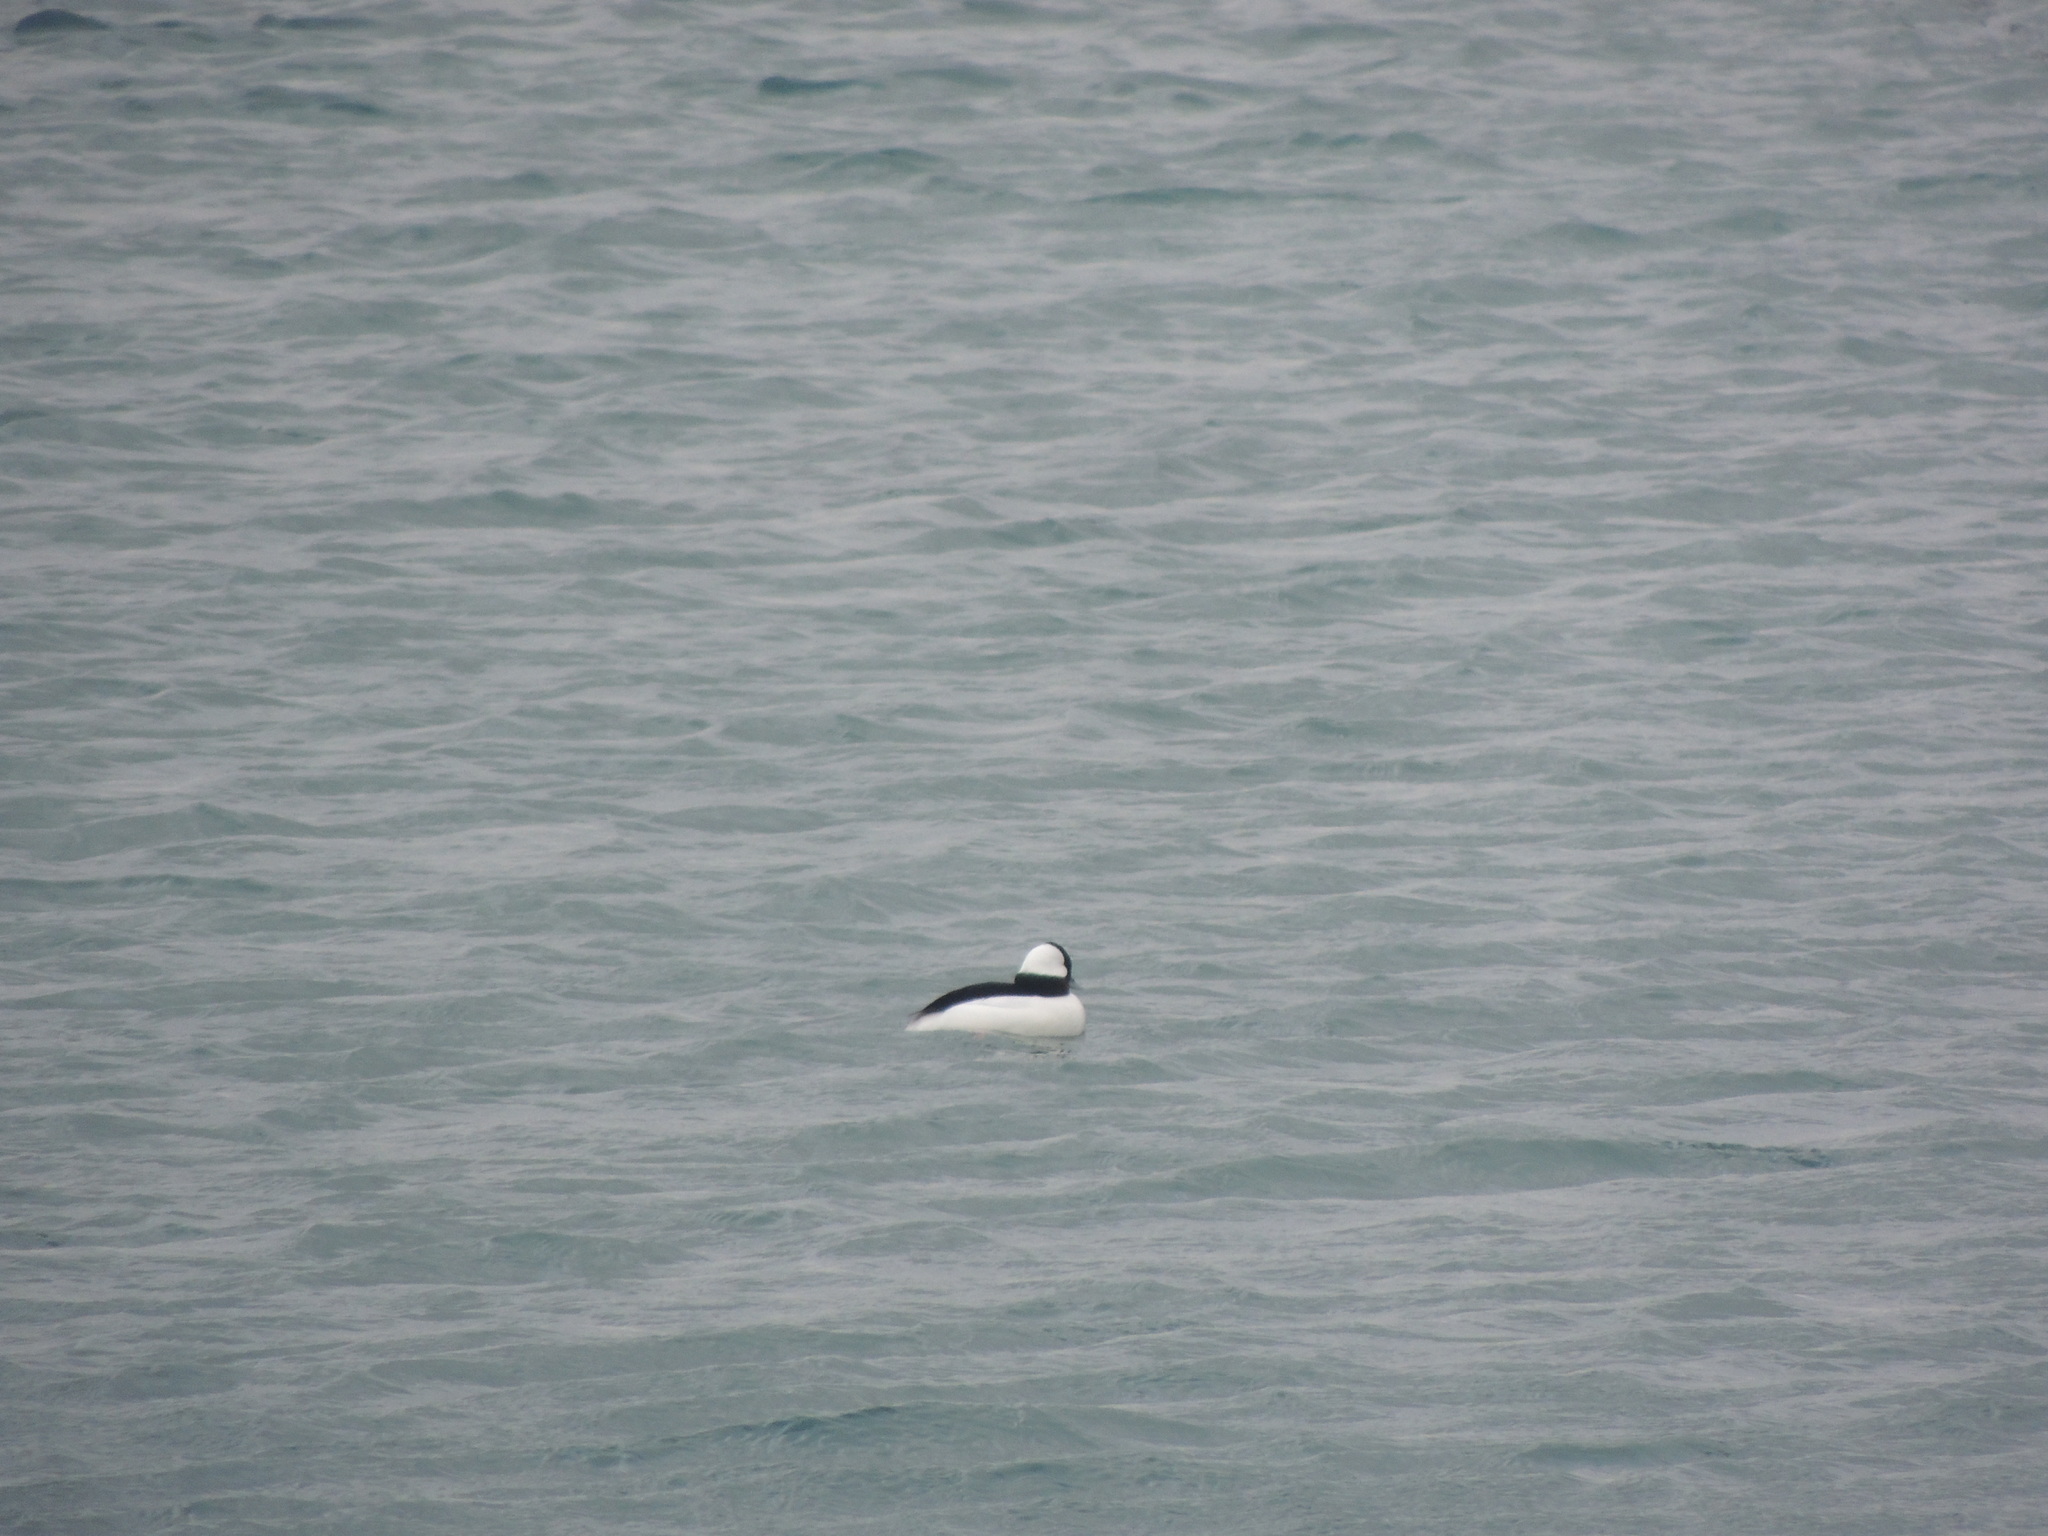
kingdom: Animalia
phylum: Chordata
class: Aves
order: Anseriformes
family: Anatidae
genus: Bucephala
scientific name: Bucephala albeola
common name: Bufflehead
